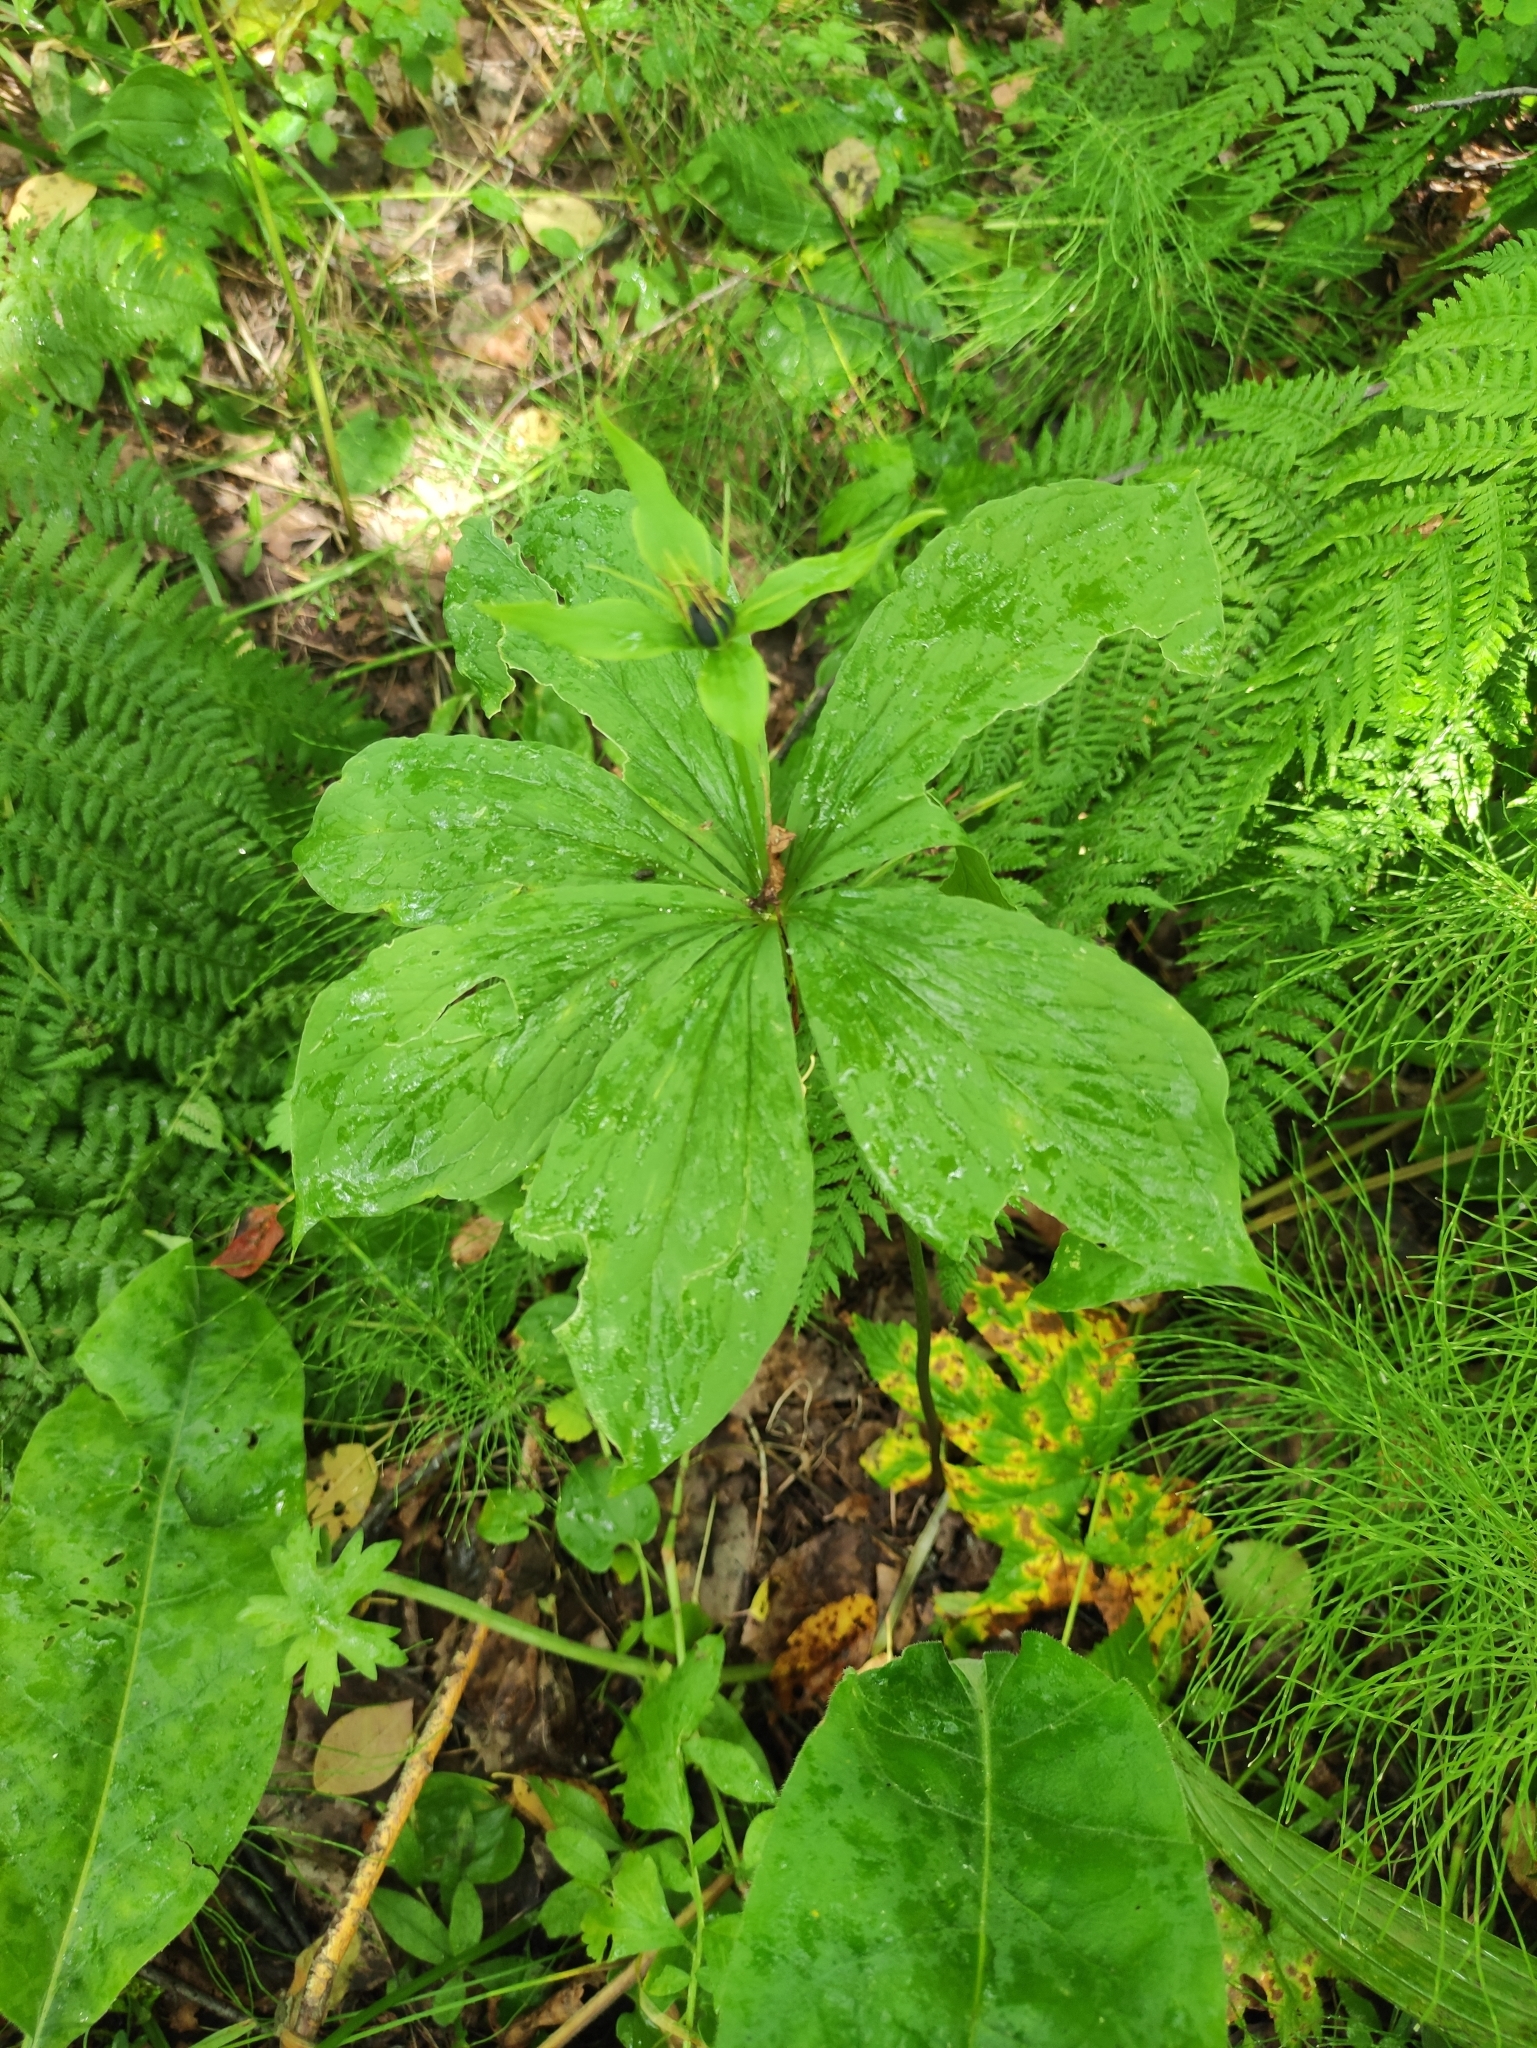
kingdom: Plantae
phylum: Tracheophyta
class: Liliopsida
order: Liliales
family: Melanthiaceae
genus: Paris
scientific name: Paris verticillata
